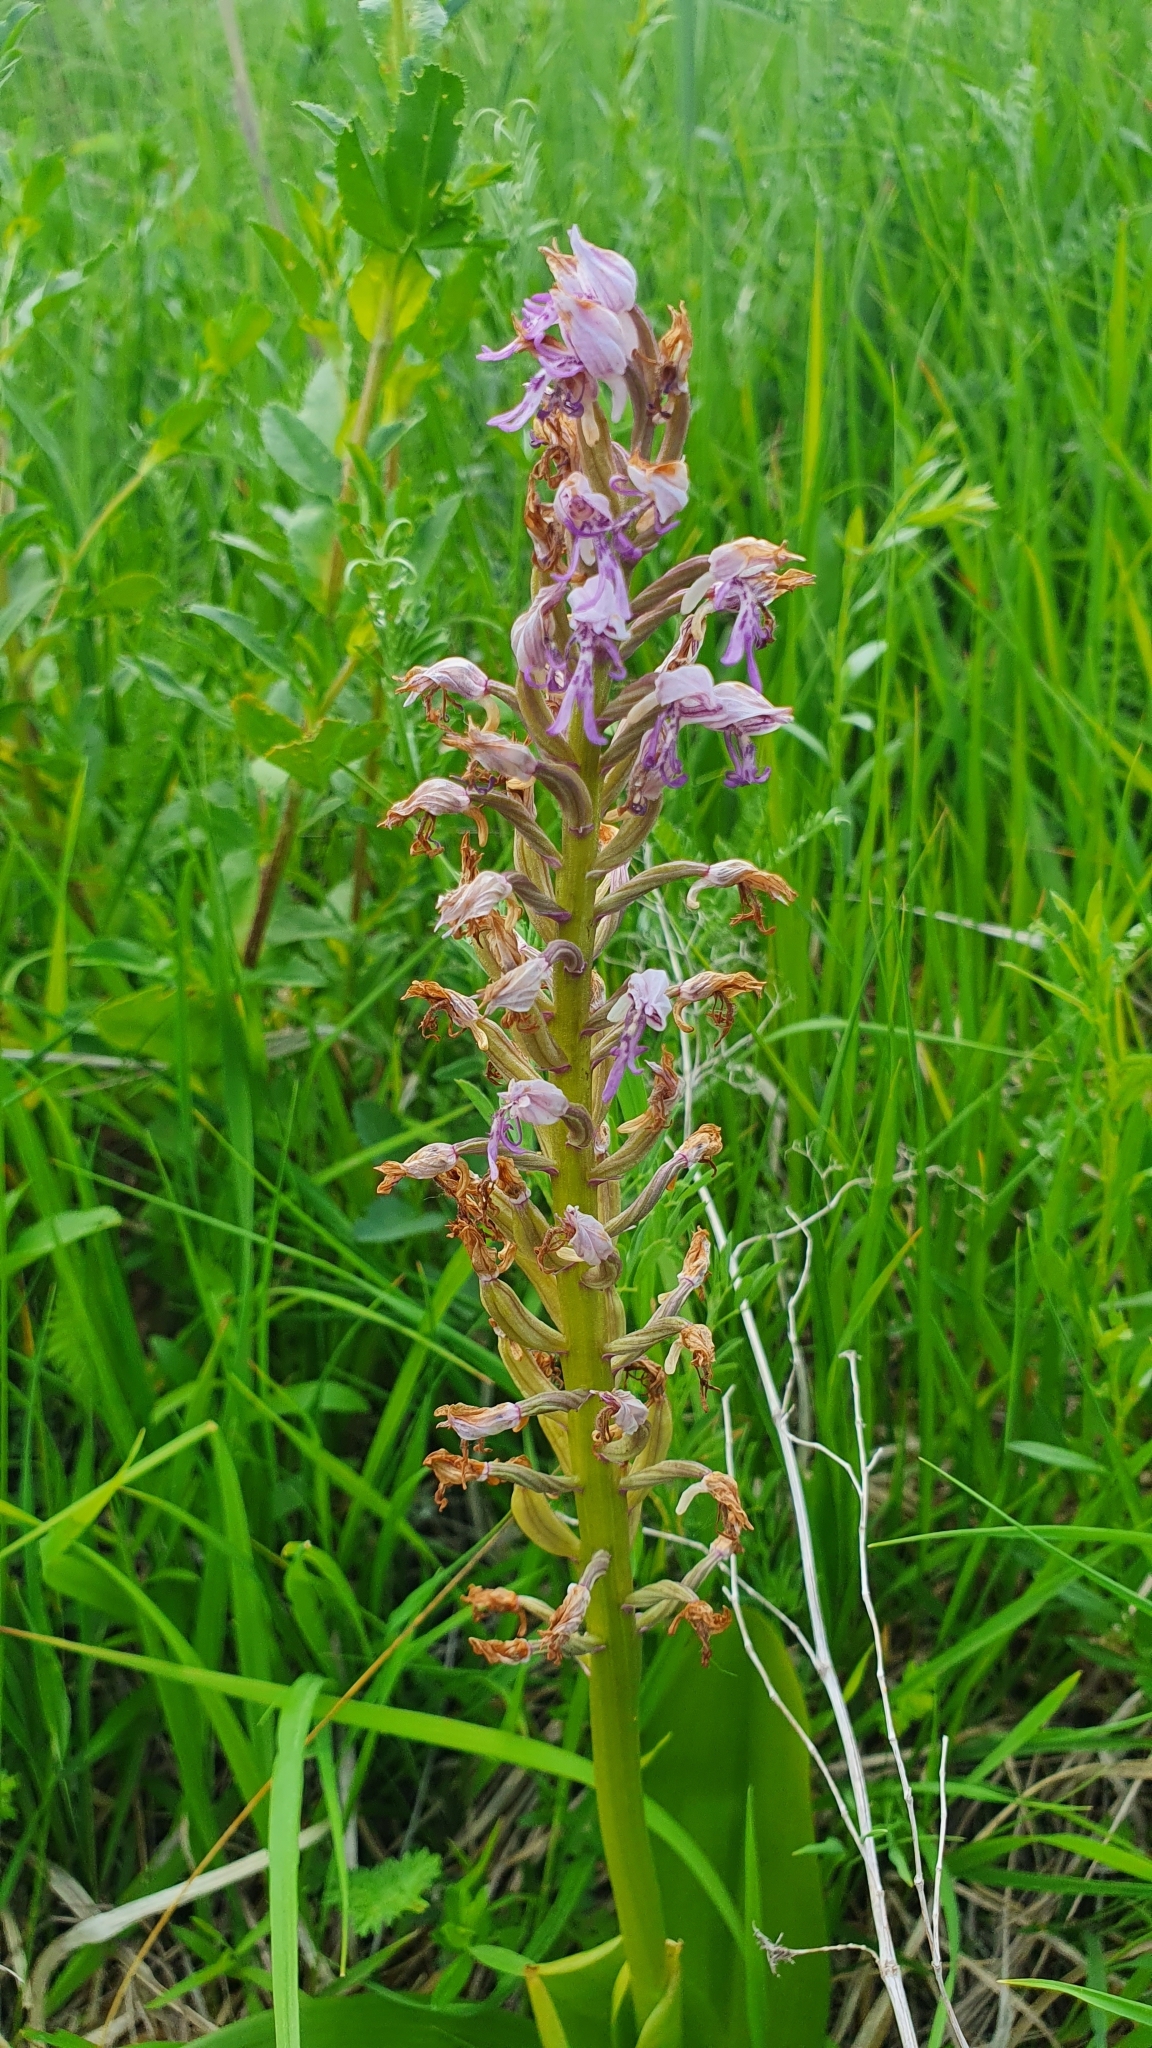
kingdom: Plantae
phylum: Tracheophyta
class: Liliopsida
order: Asparagales
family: Orchidaceae
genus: Orchis
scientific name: Orchis militaris
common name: Military orchid
